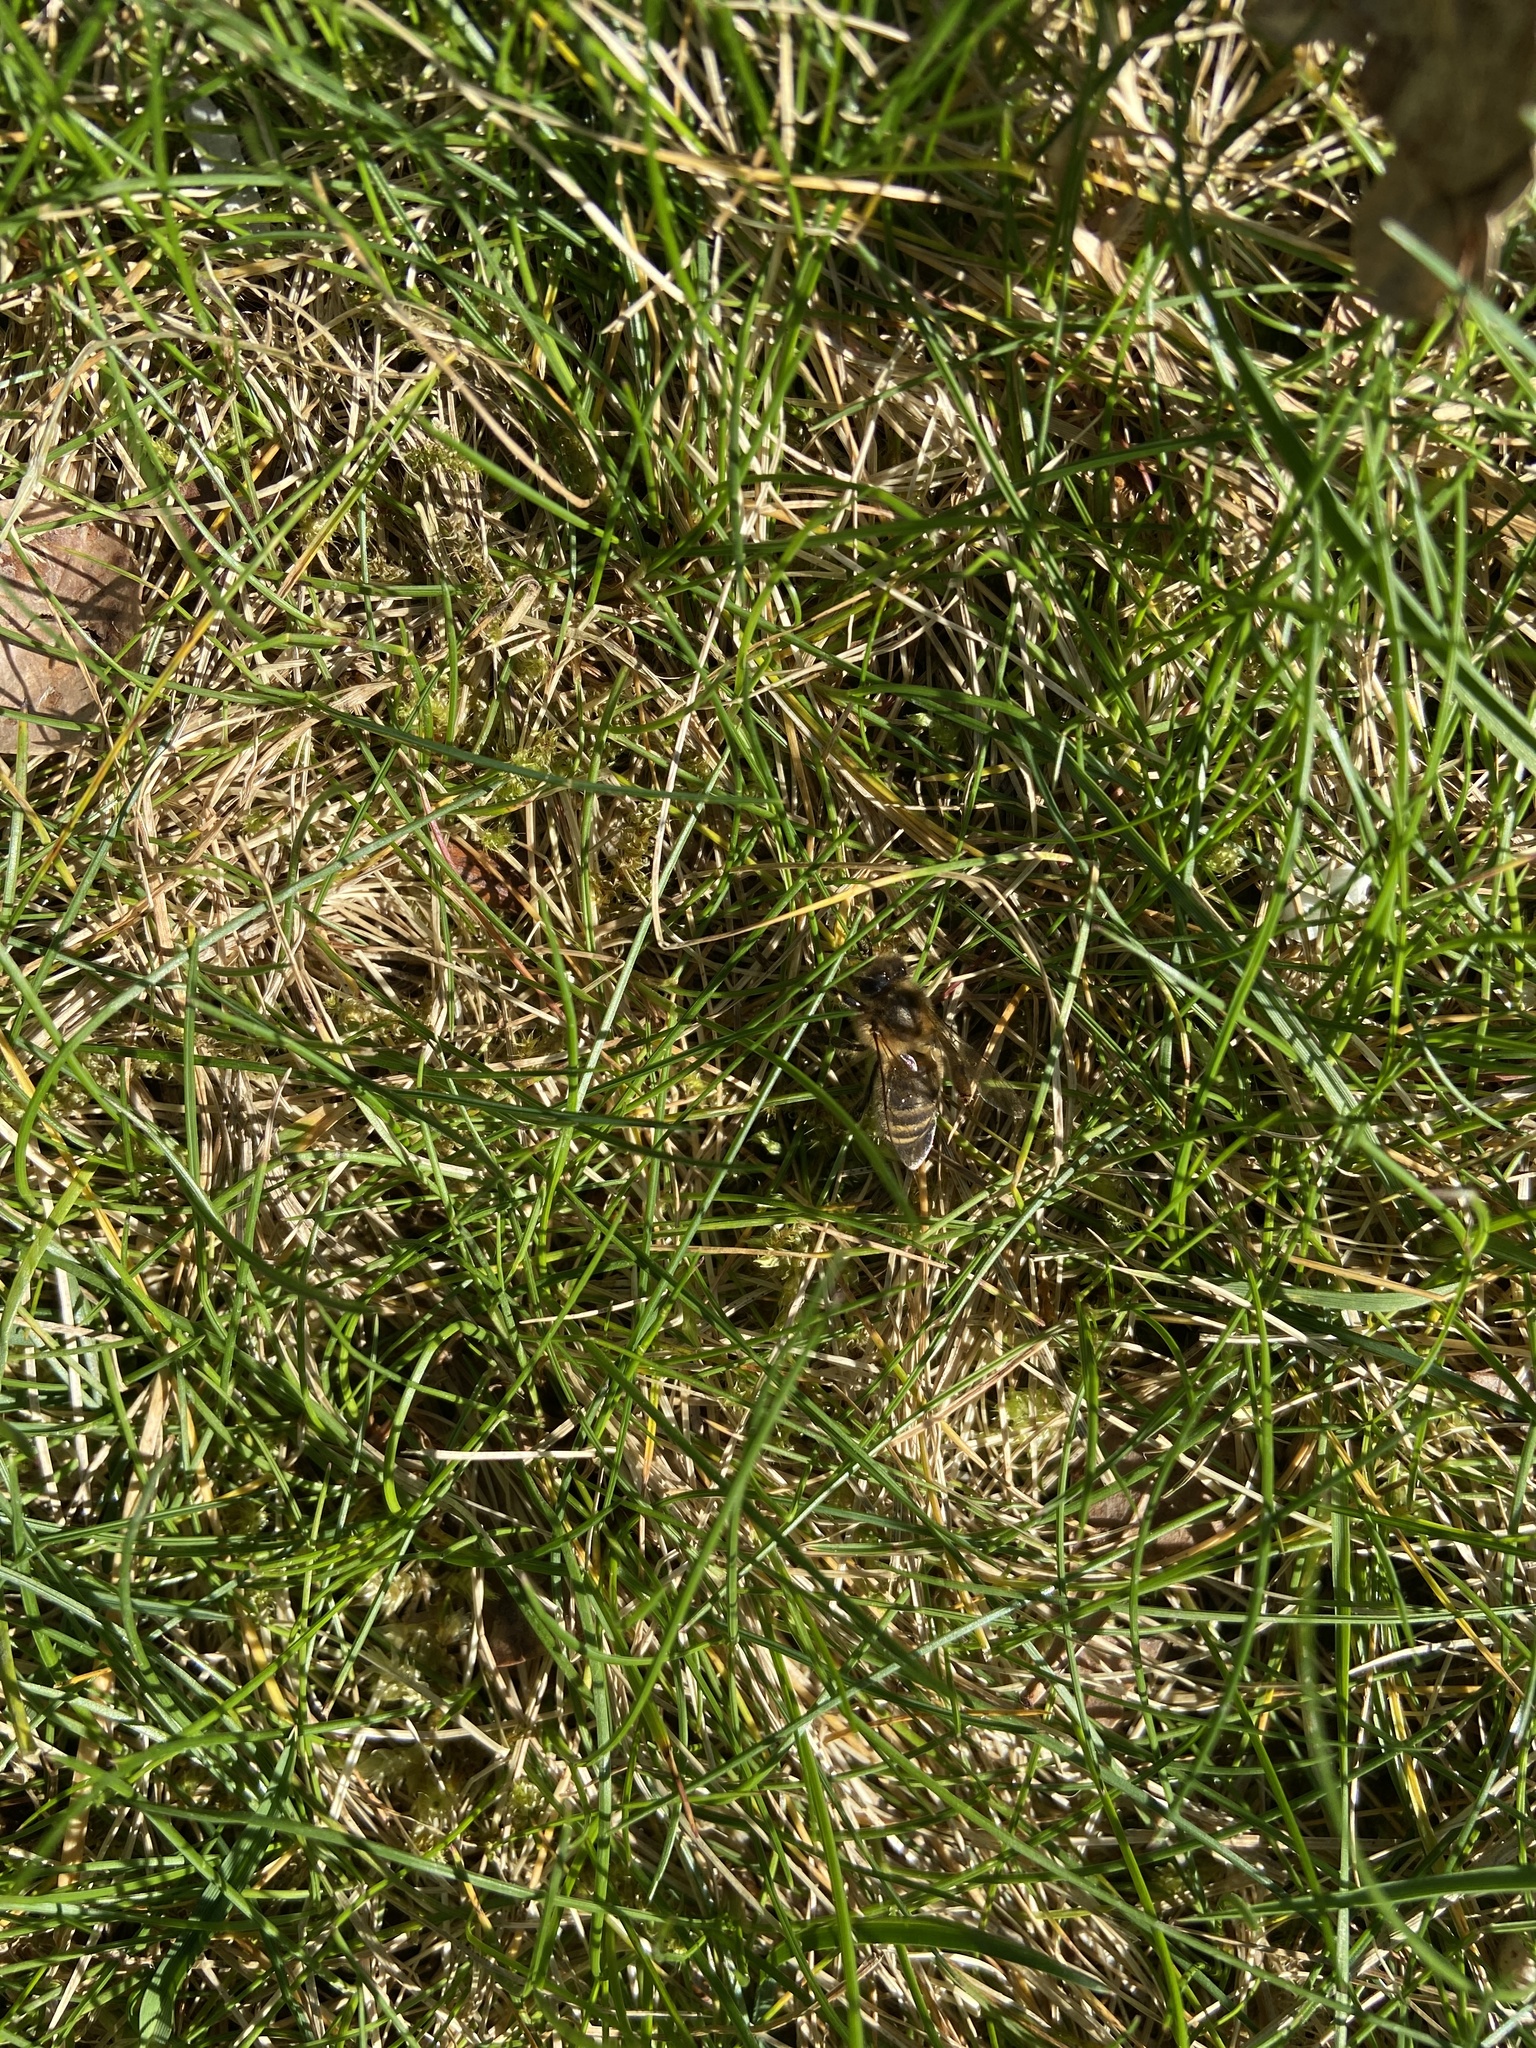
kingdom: Animalia
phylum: Arthropoda
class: Insecta
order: Hymenoptera
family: Apidae
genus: Apis
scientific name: Apis mellifera
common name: Honey bee
